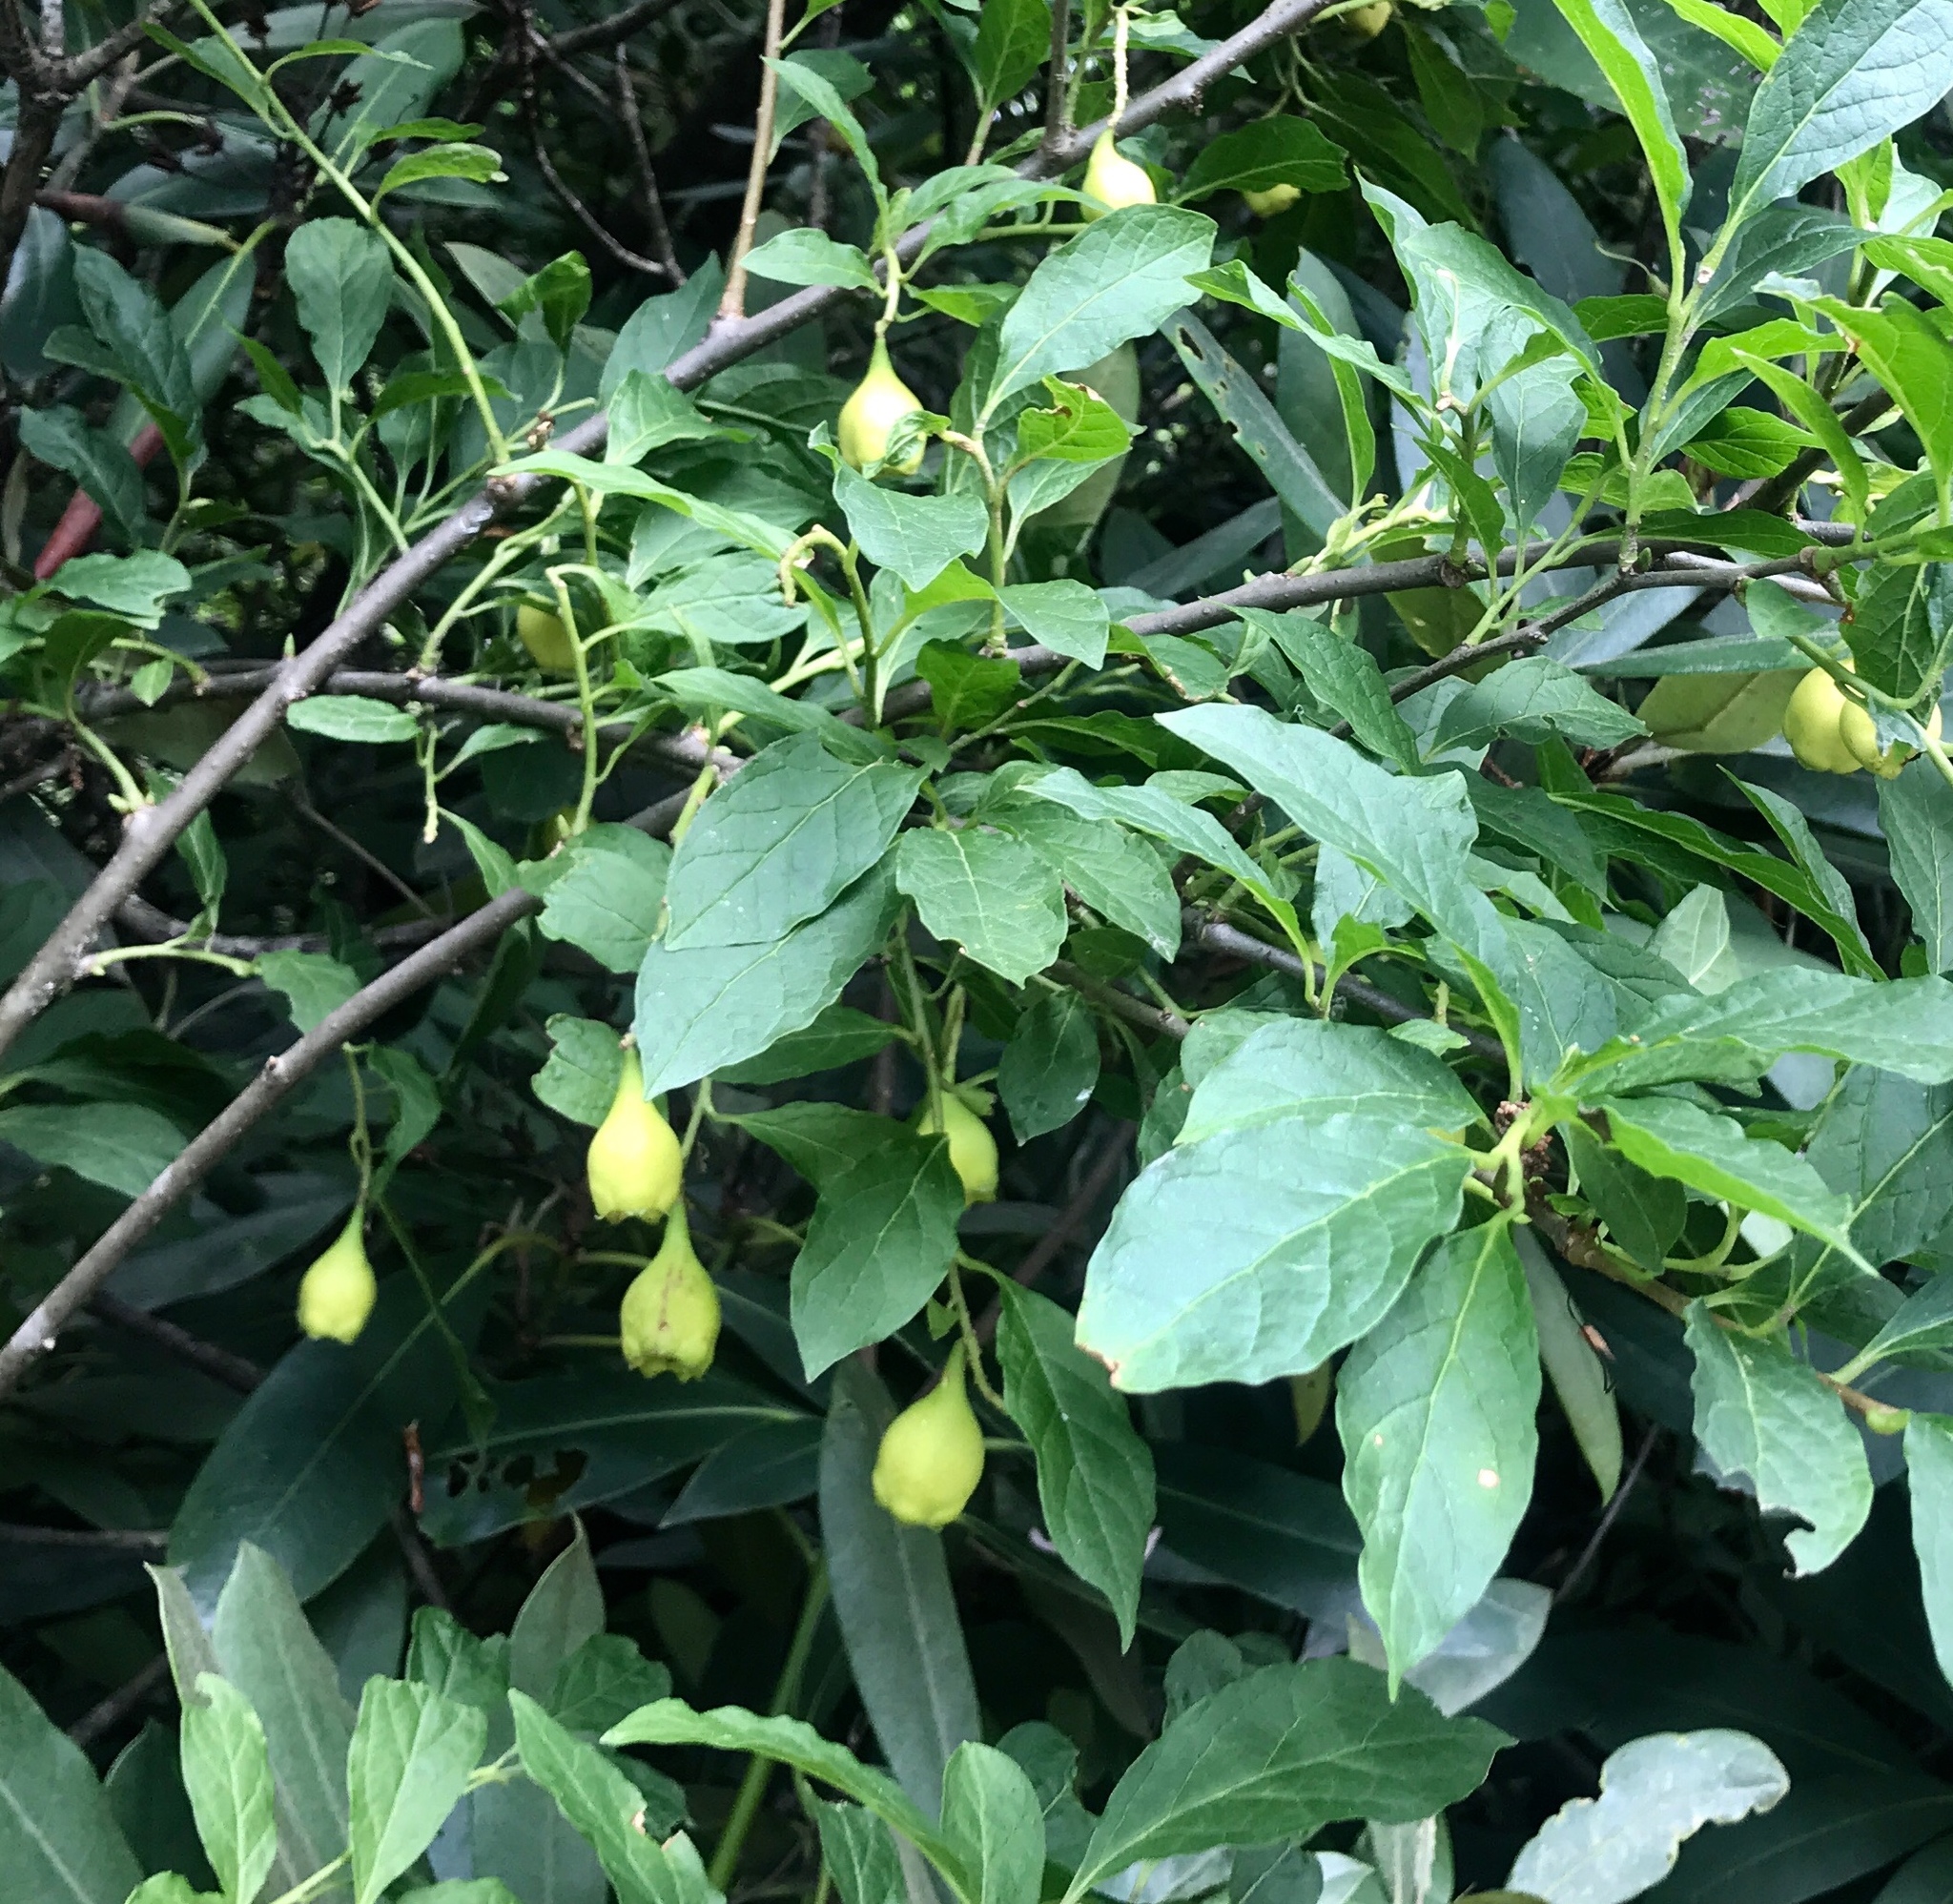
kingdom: Plantae
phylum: Tracheophyta
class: Magnoliopsida
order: Santalales
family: Cervantesiaceae
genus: Pyrularia
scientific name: Pyrularia pubera
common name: Oilnut
